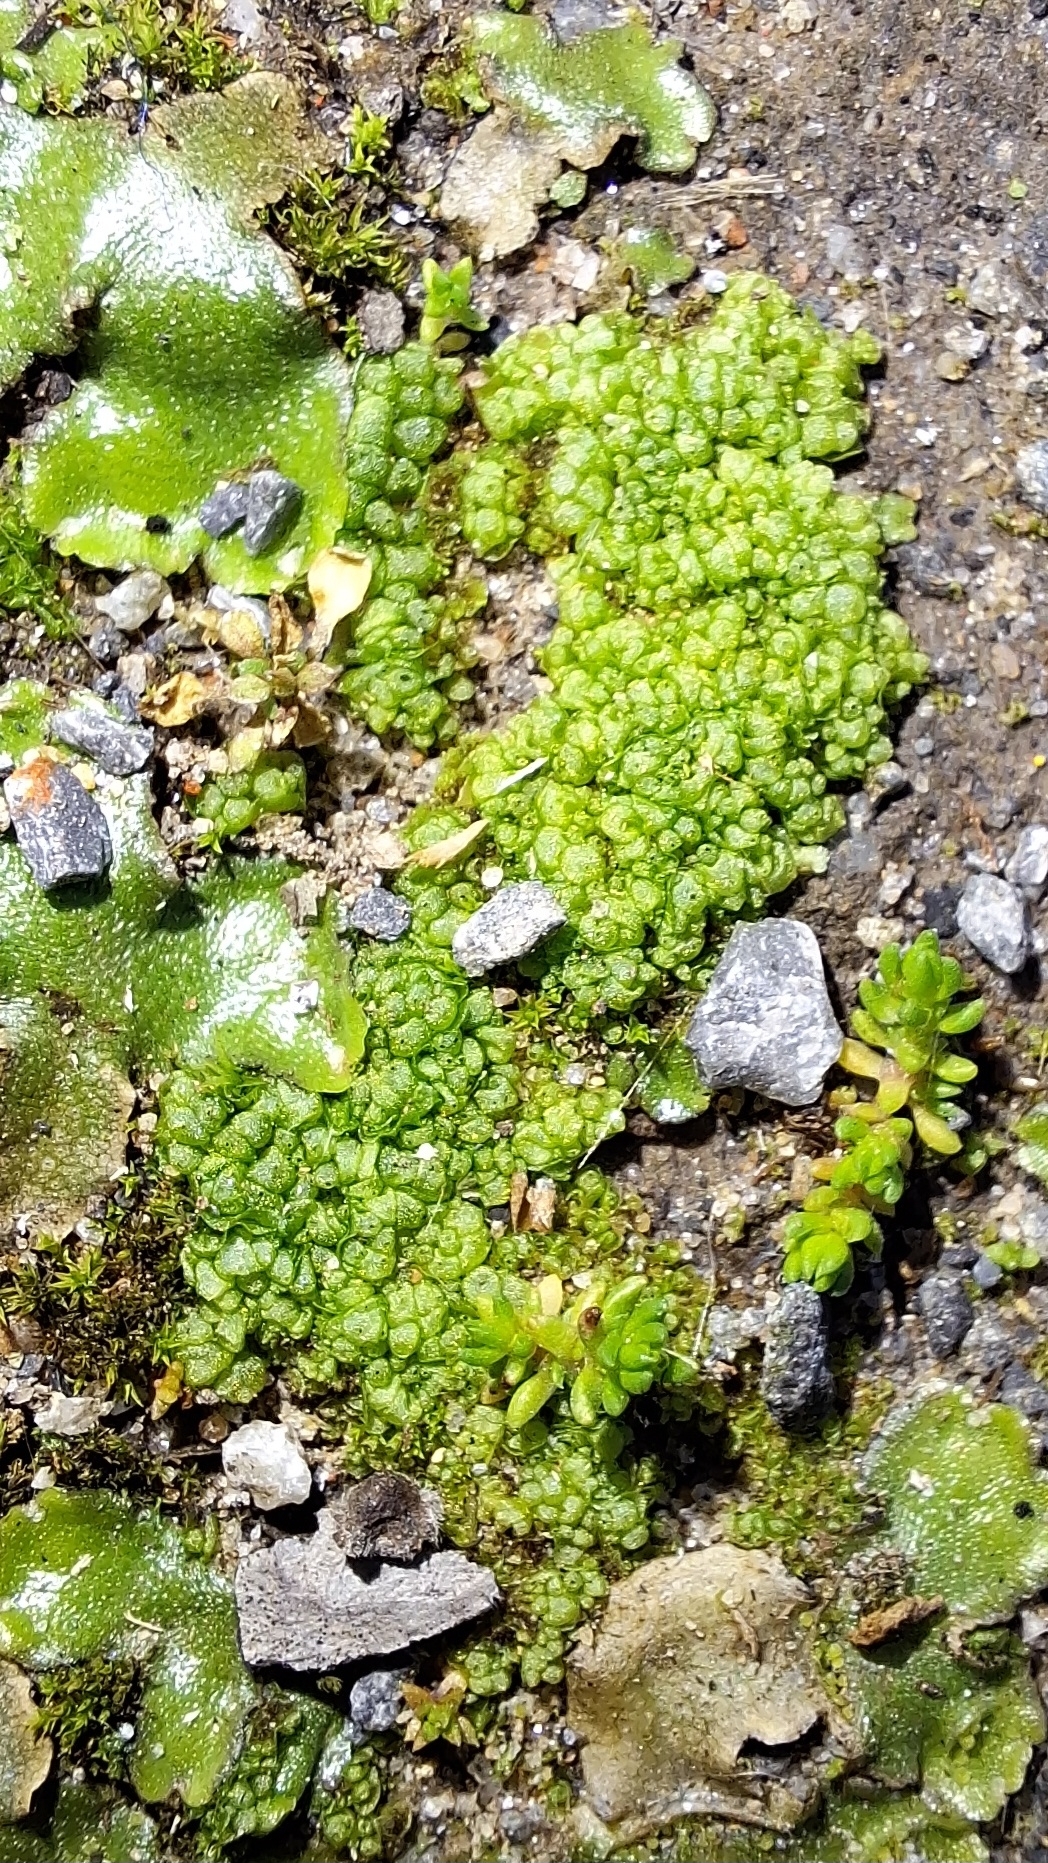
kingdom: Plantae
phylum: Marchantiophyta
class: Marchantiopsida
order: Sphaerocarpales
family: Sphaerocarpaceae
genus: Sphaerocarpos
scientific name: Sphaerocarpos texanus
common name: Texas balloonwort
